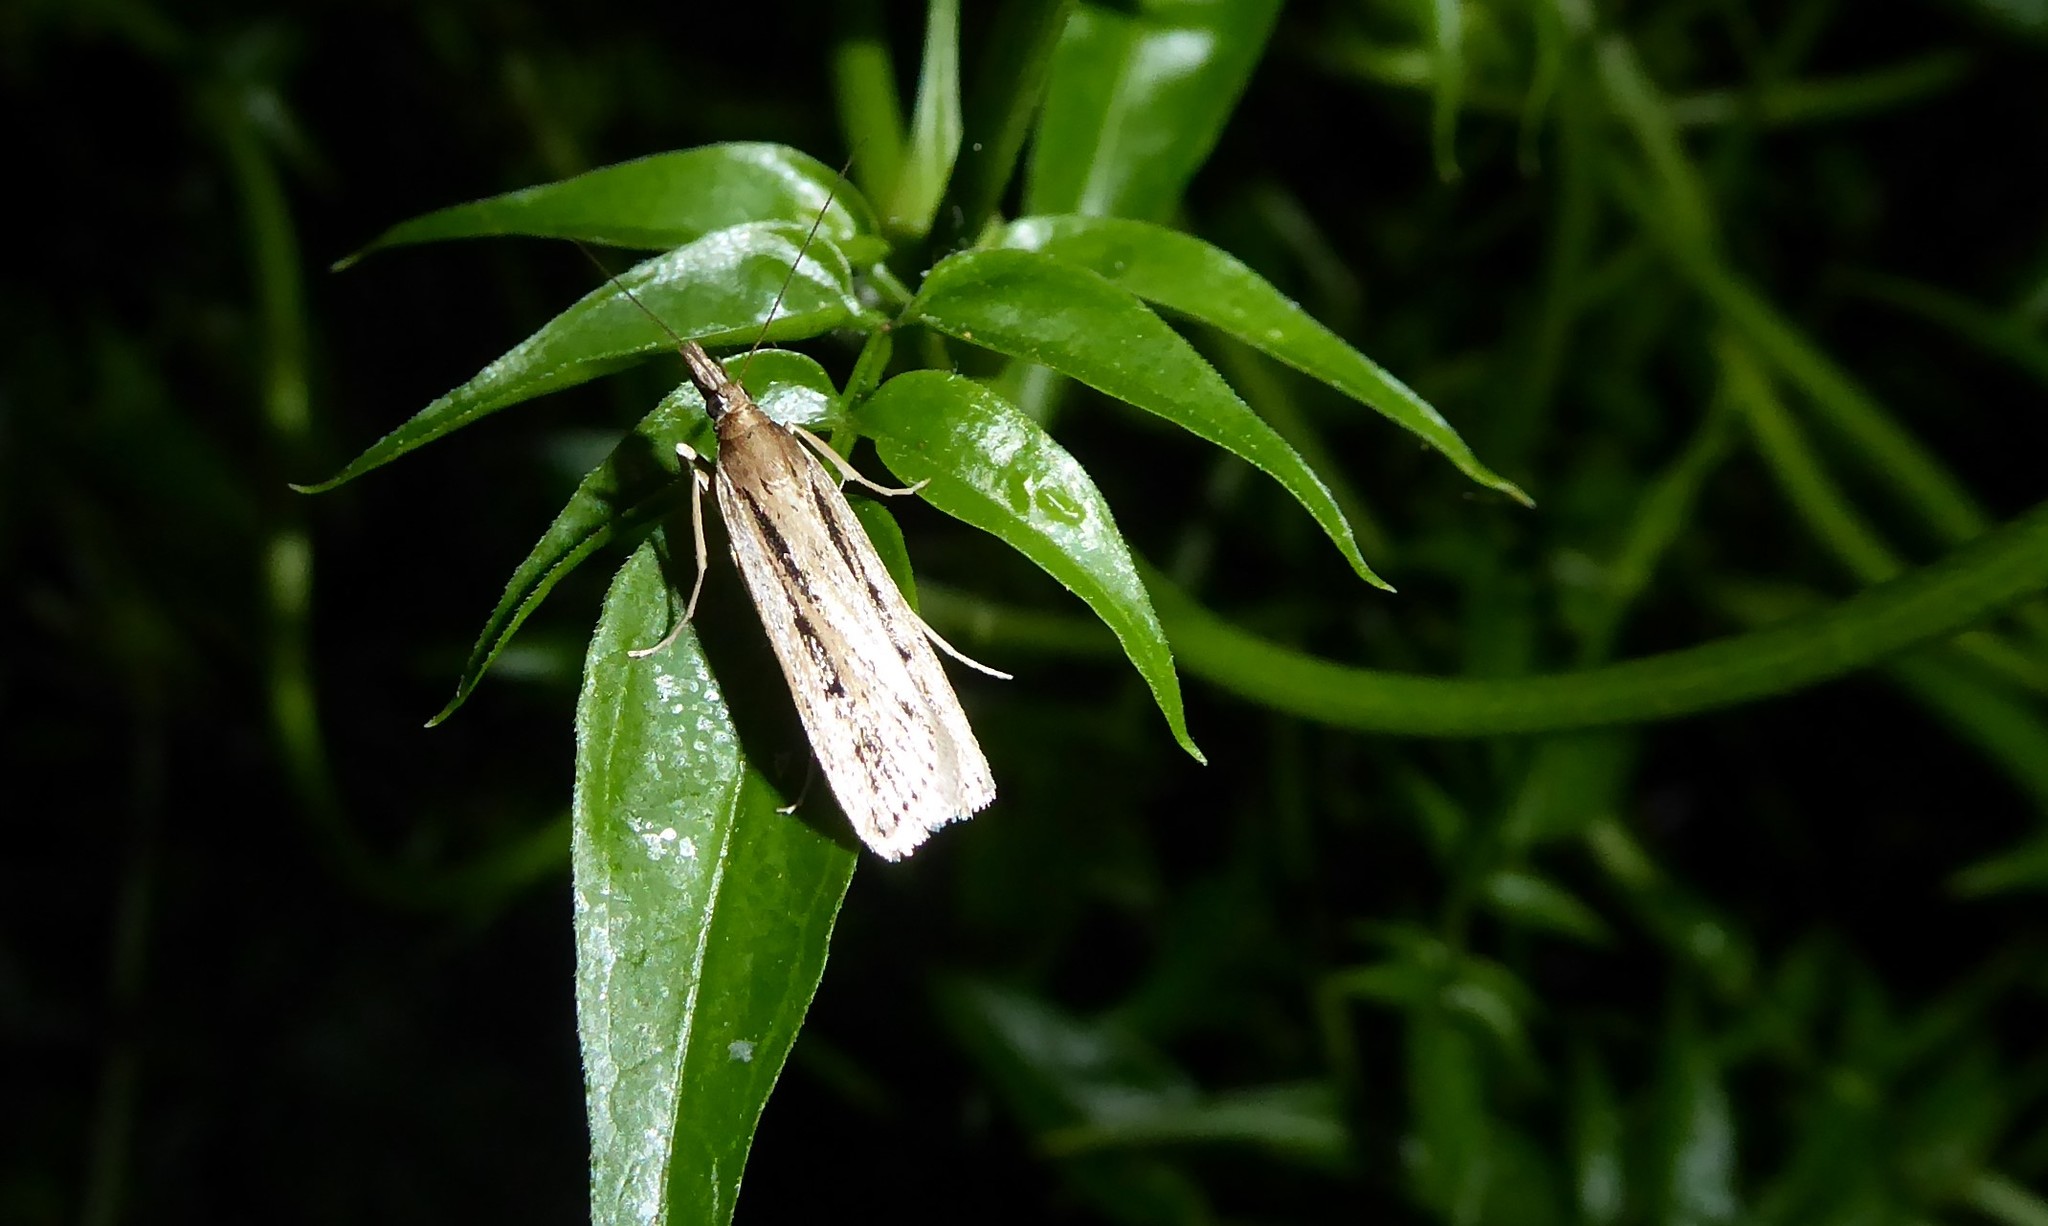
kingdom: Animalia
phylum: Arthropoda
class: Insecta
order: Lepidoptera
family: Crambidae
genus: Eudonia
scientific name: Eudonia sabulosella
